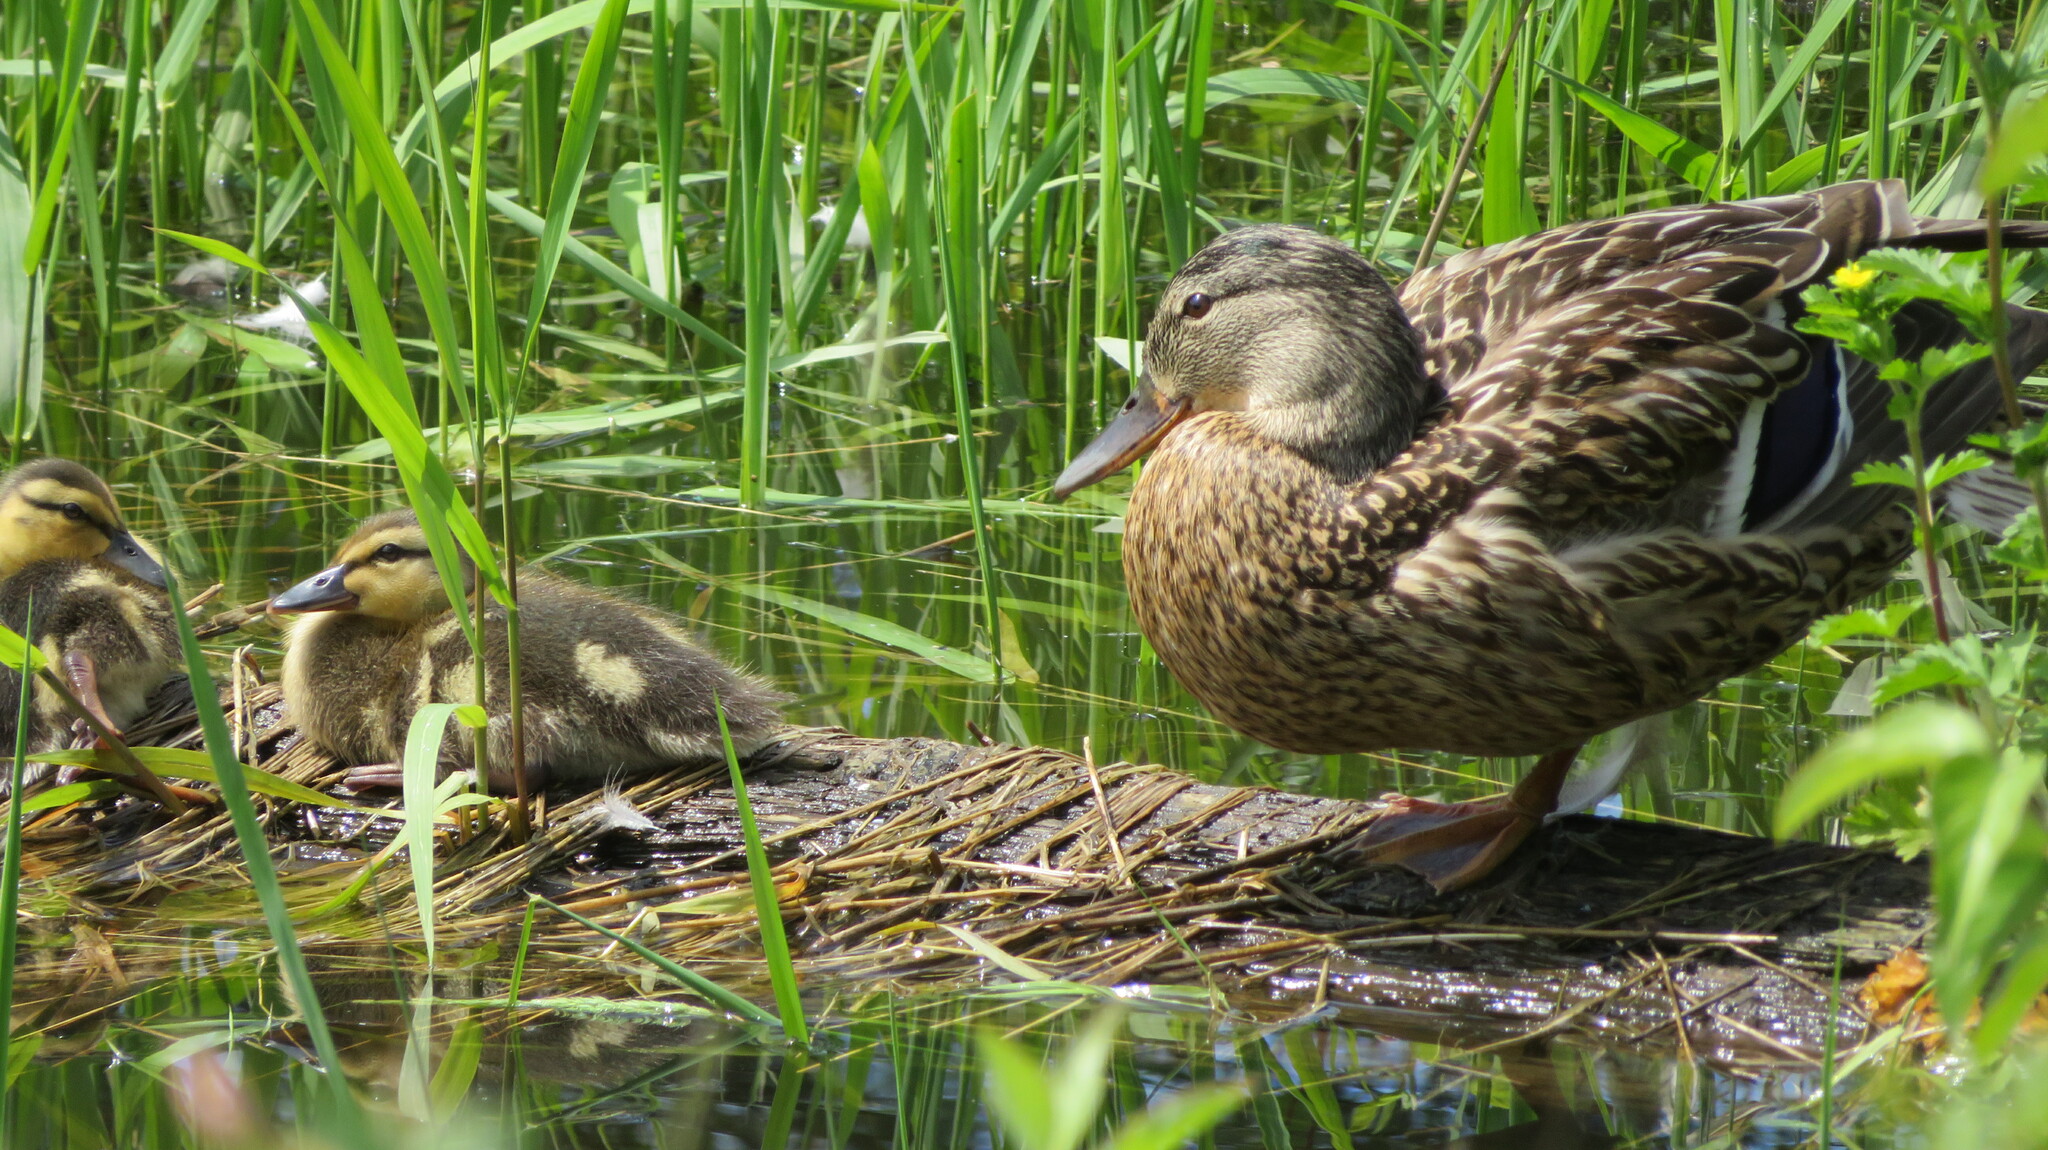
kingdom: Animalia
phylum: Chordata
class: Aves
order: Anseriformes
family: Anatidae
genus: Anas
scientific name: Anas platyrhynchos
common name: Mallard
